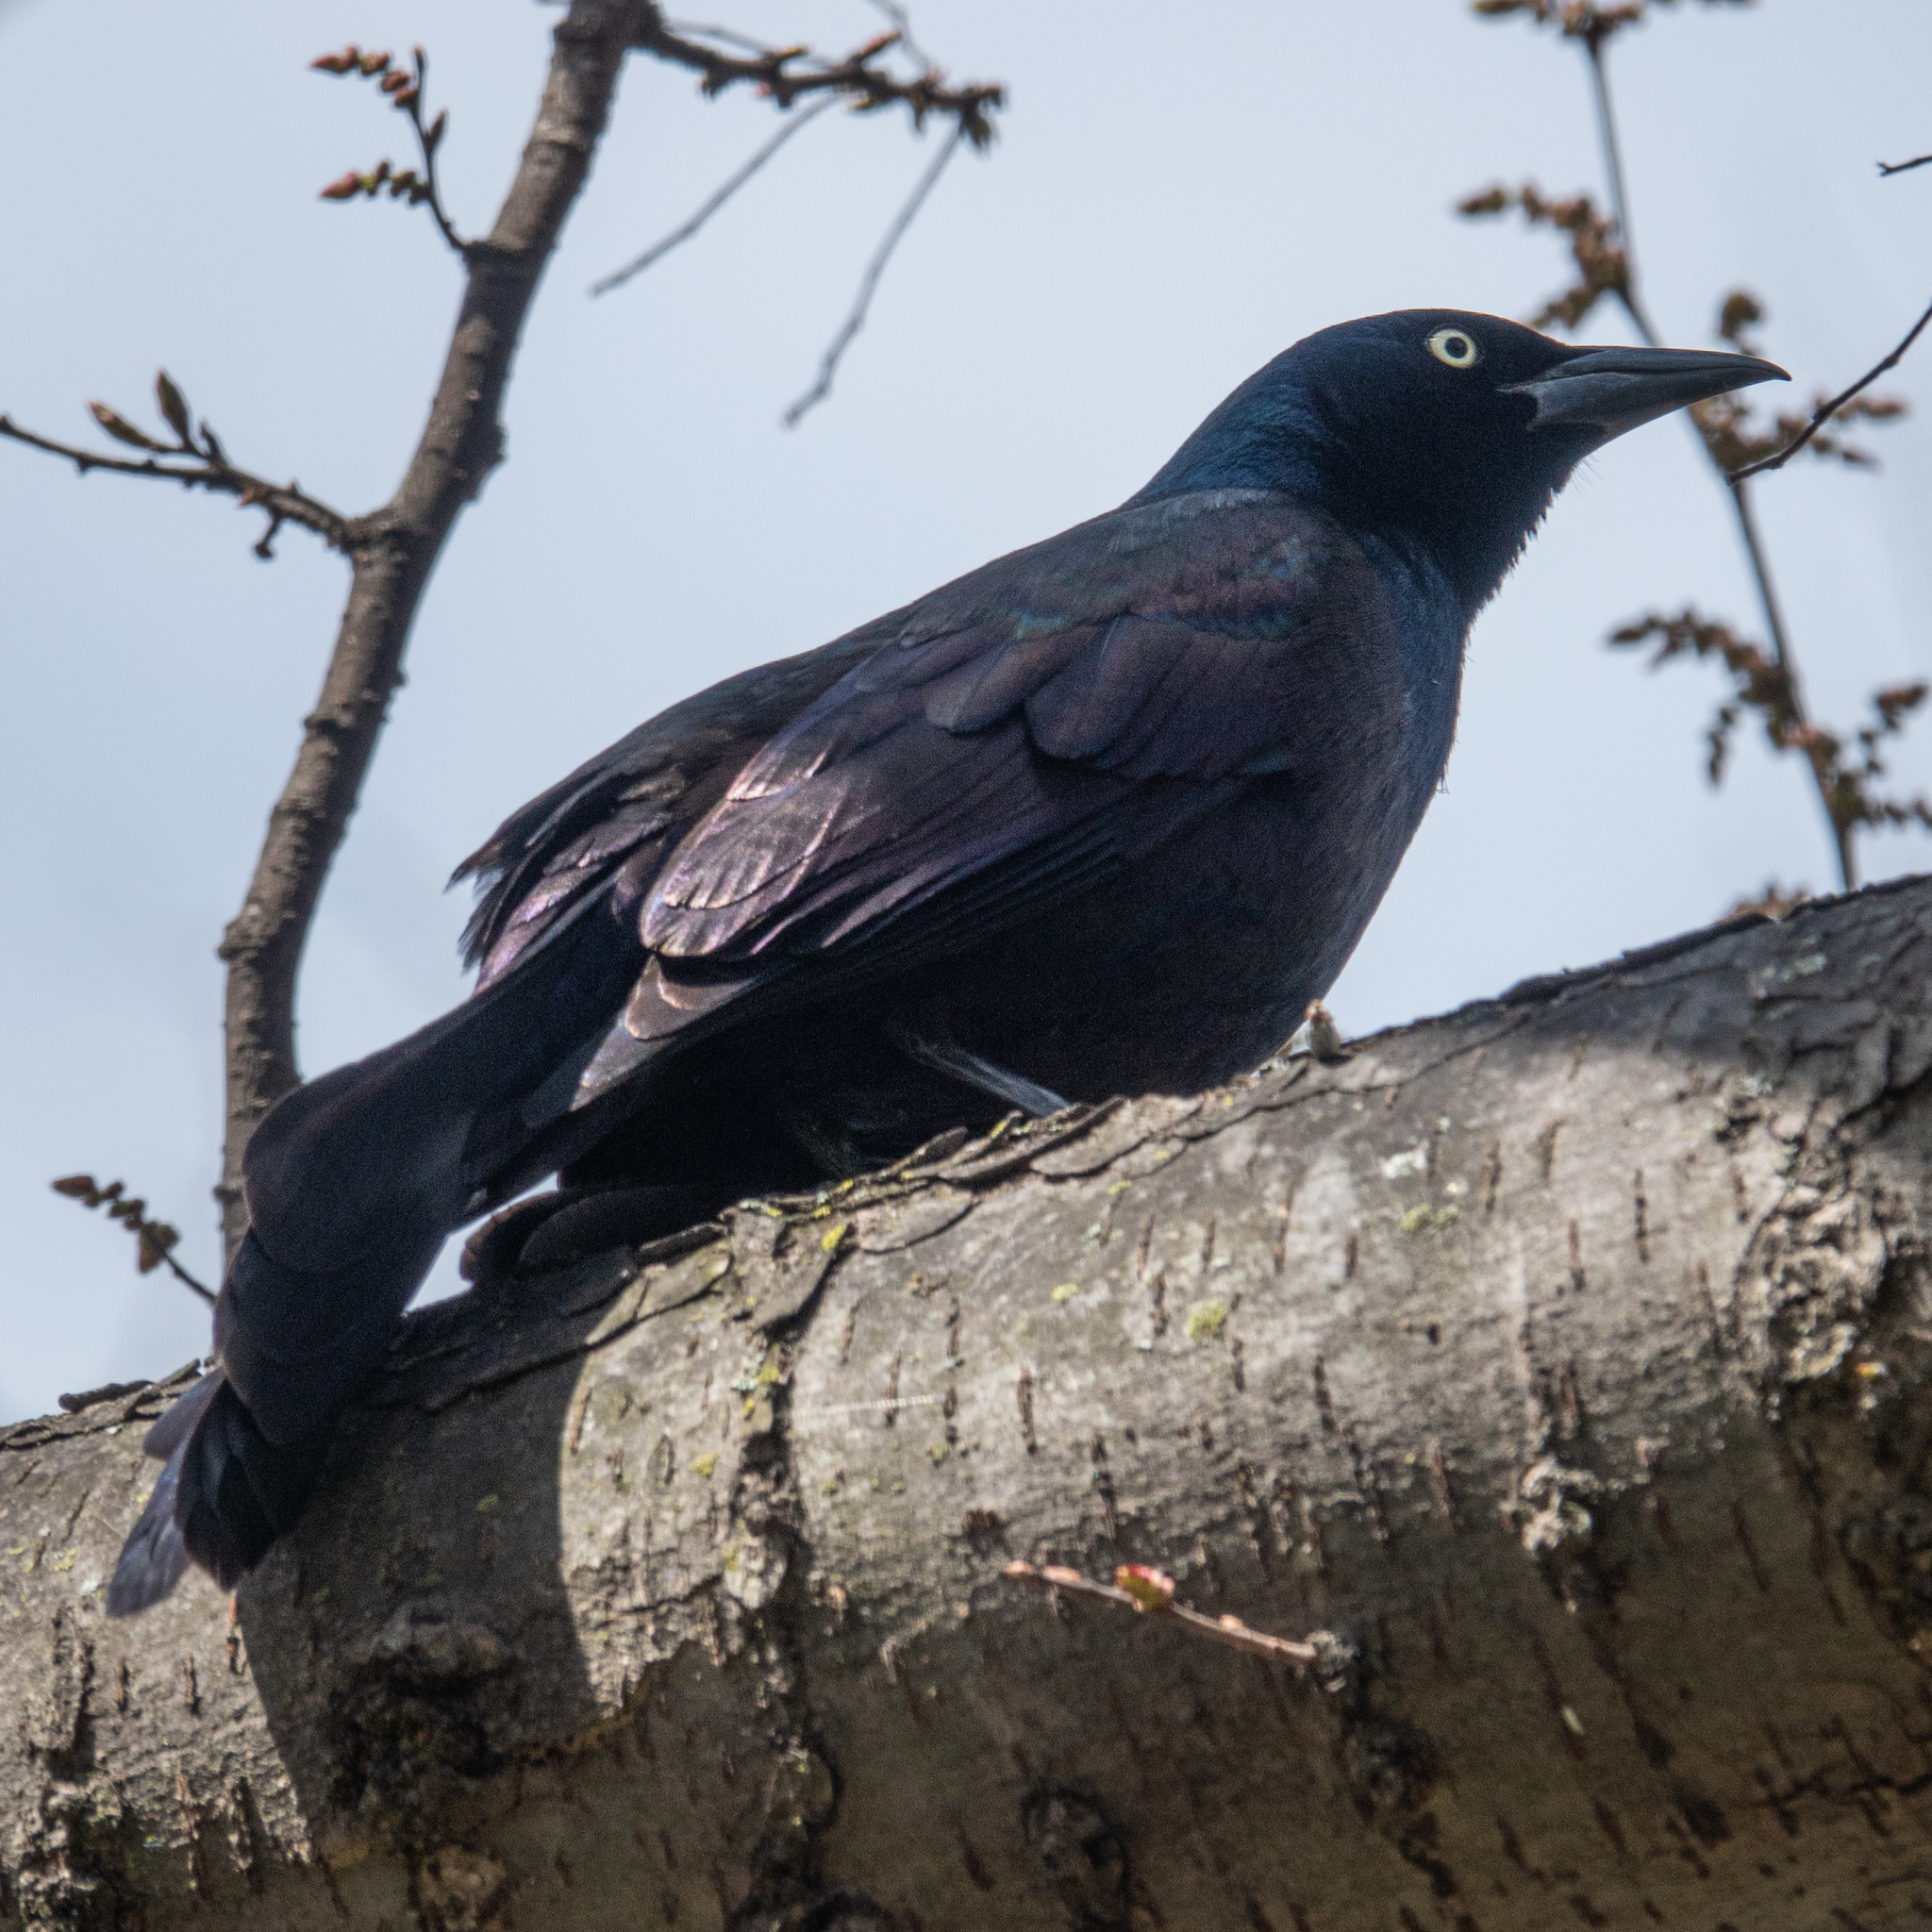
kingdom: Animalia
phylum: Chordata
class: Aves
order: Passeriformes
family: Icteridae
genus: Quiscalus
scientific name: Quiscalus quiscula
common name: Common grackle
